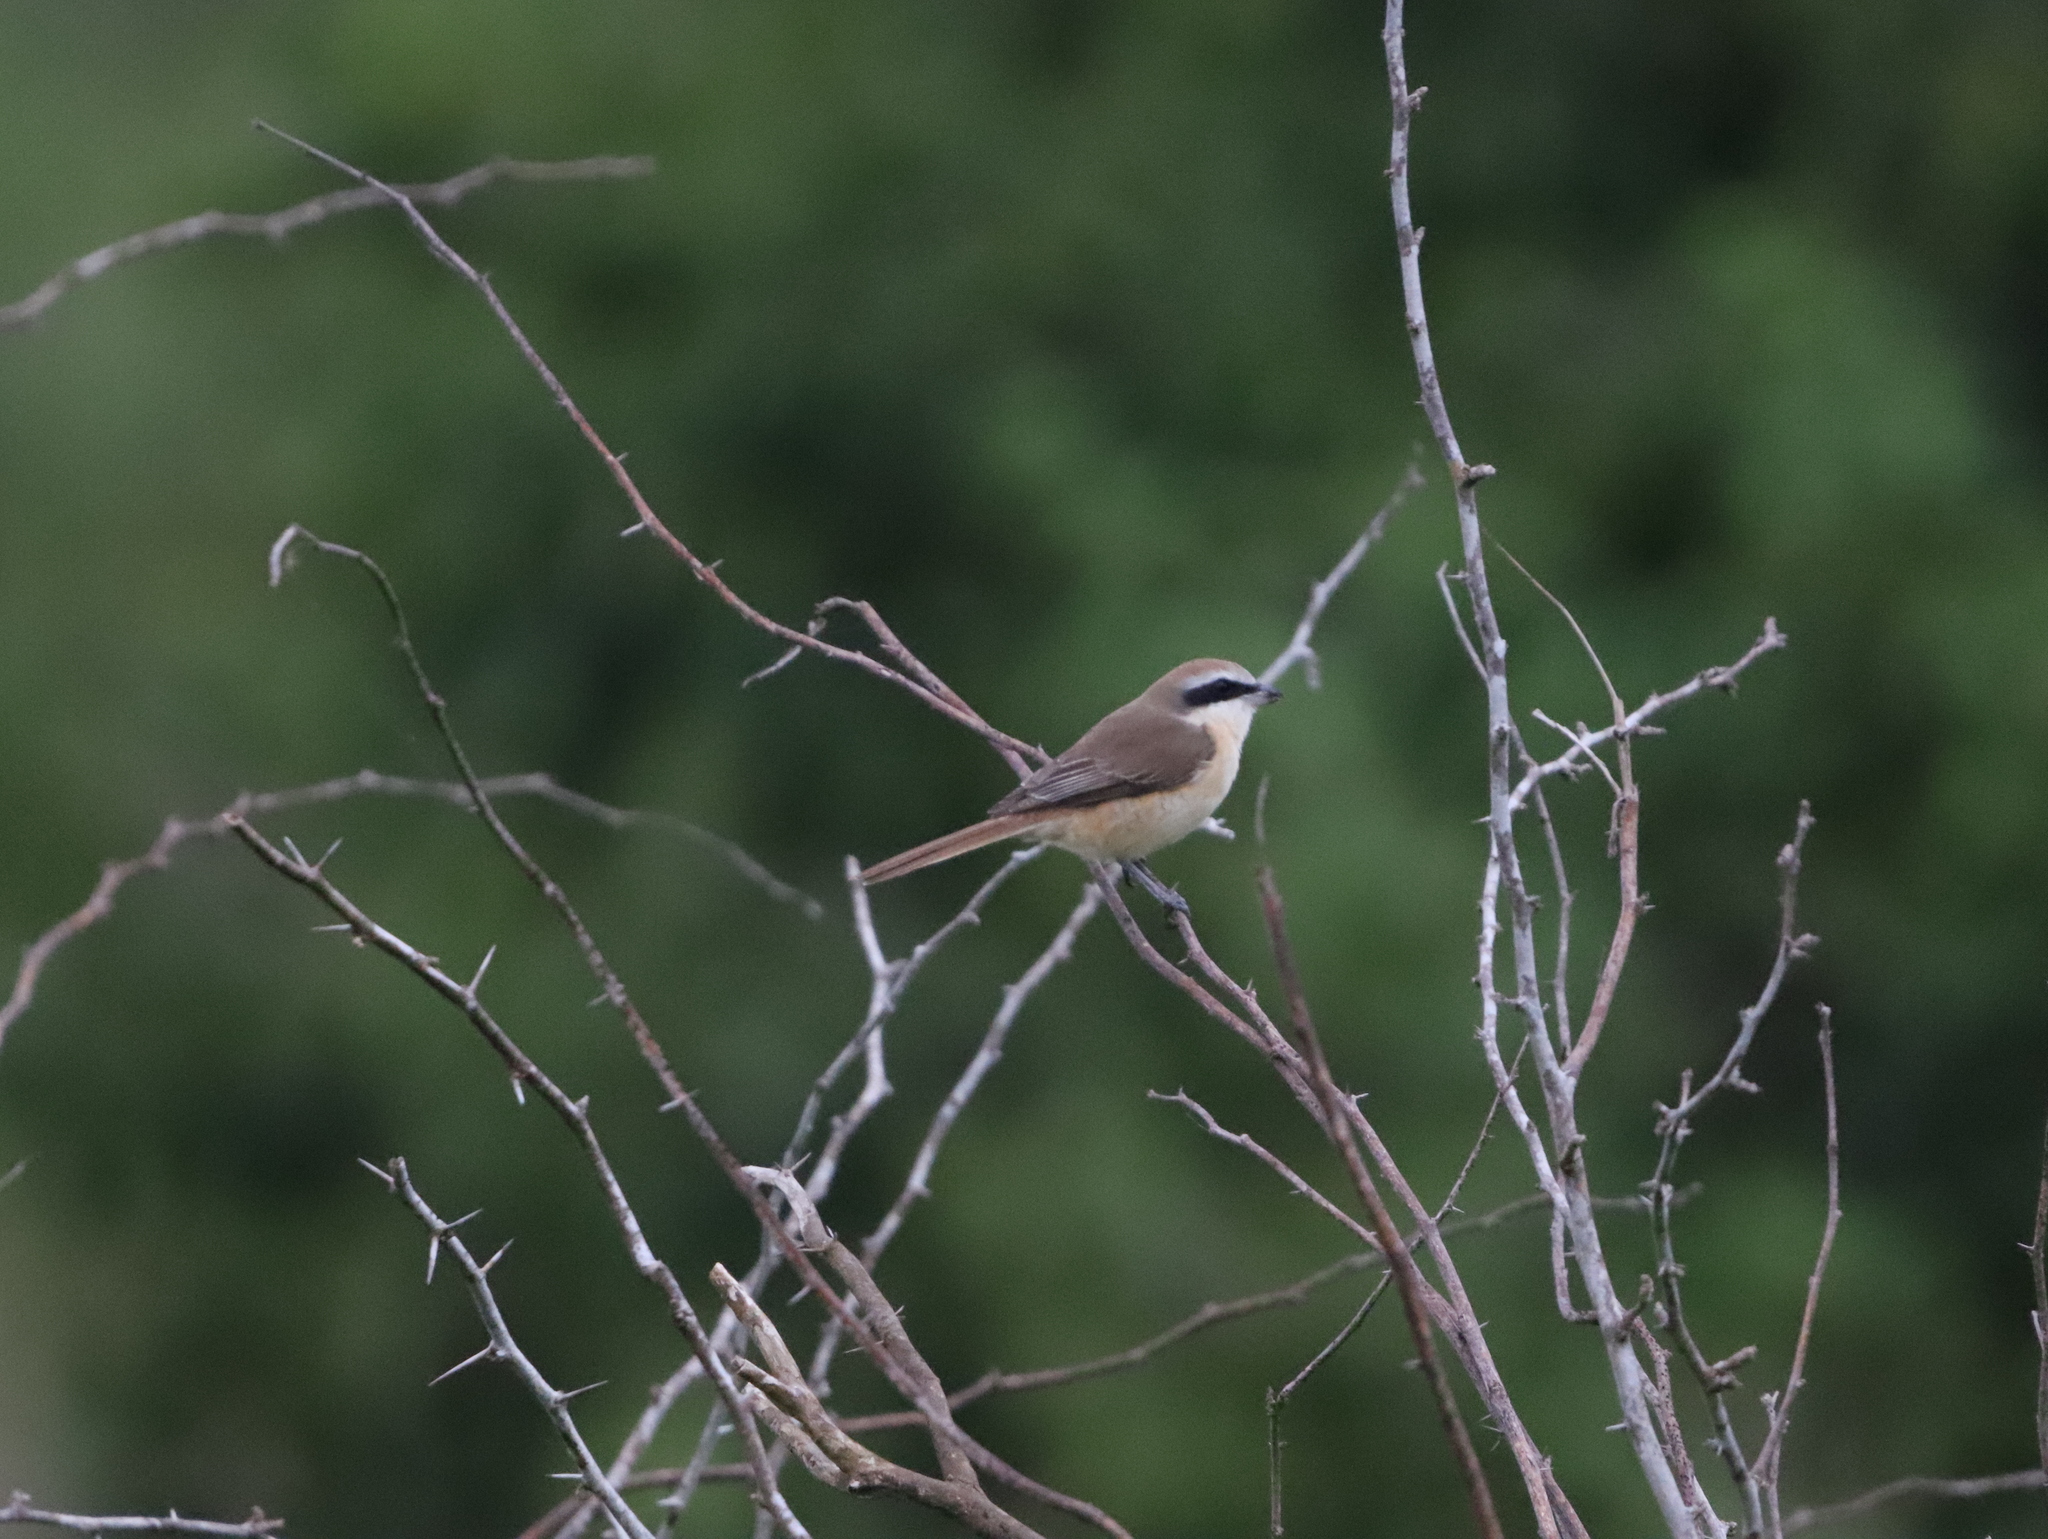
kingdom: Animalia
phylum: Chordata
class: Aves
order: Passeriformes
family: Laniidae
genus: Lanius
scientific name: Lanius cristatus
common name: Brown shrike
